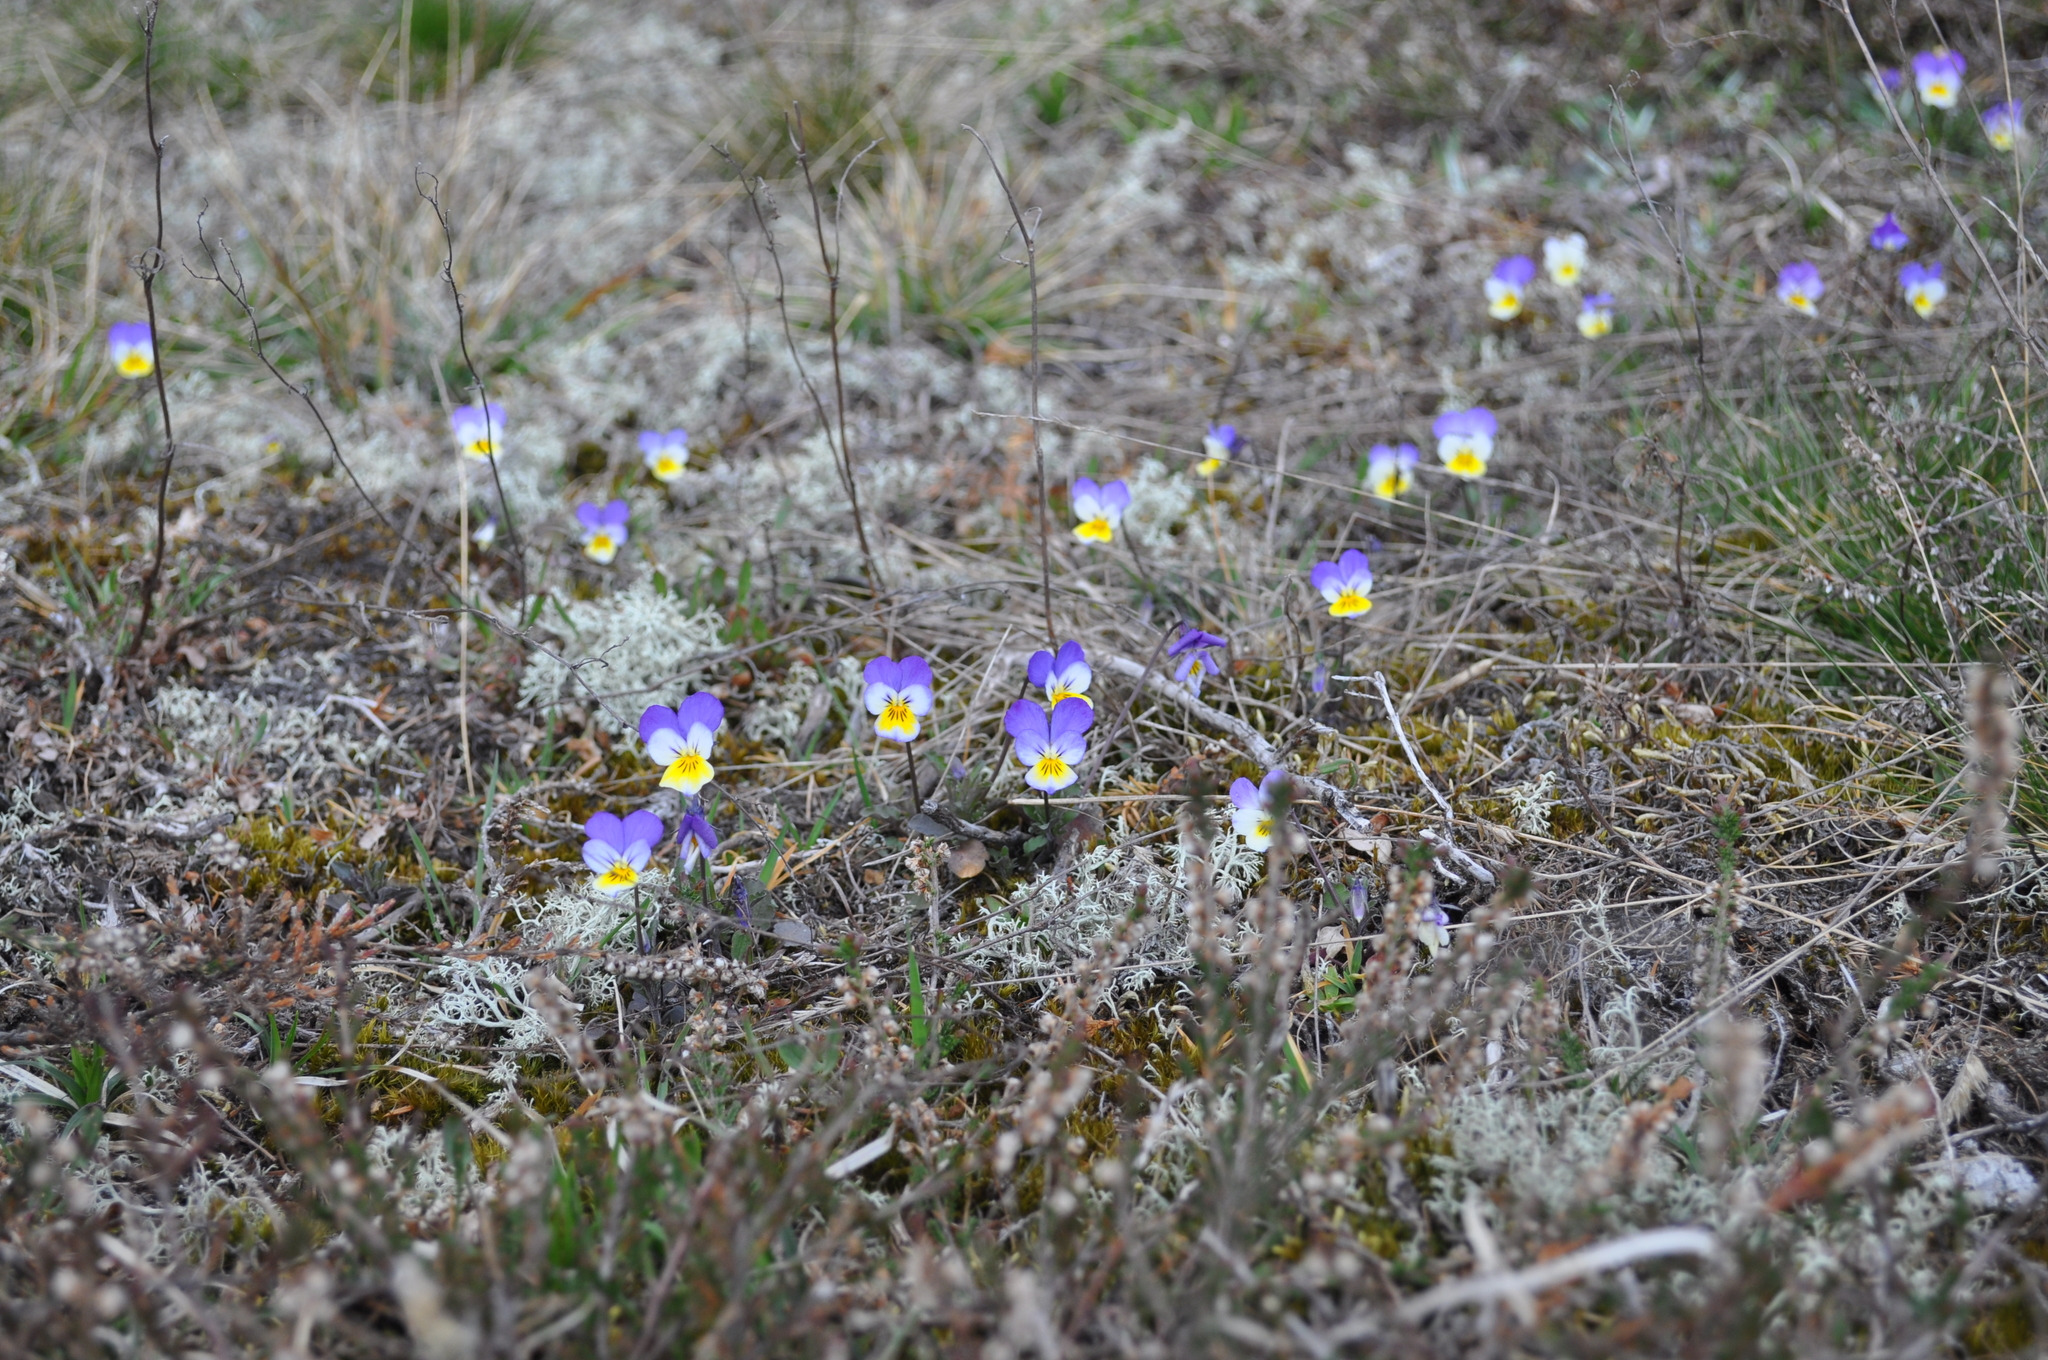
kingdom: Plantae
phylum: Tracheophyta
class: Magnoliopsida
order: Malpighiales
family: Violaceae
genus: Viola
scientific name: Viola tricolor
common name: Pansy
